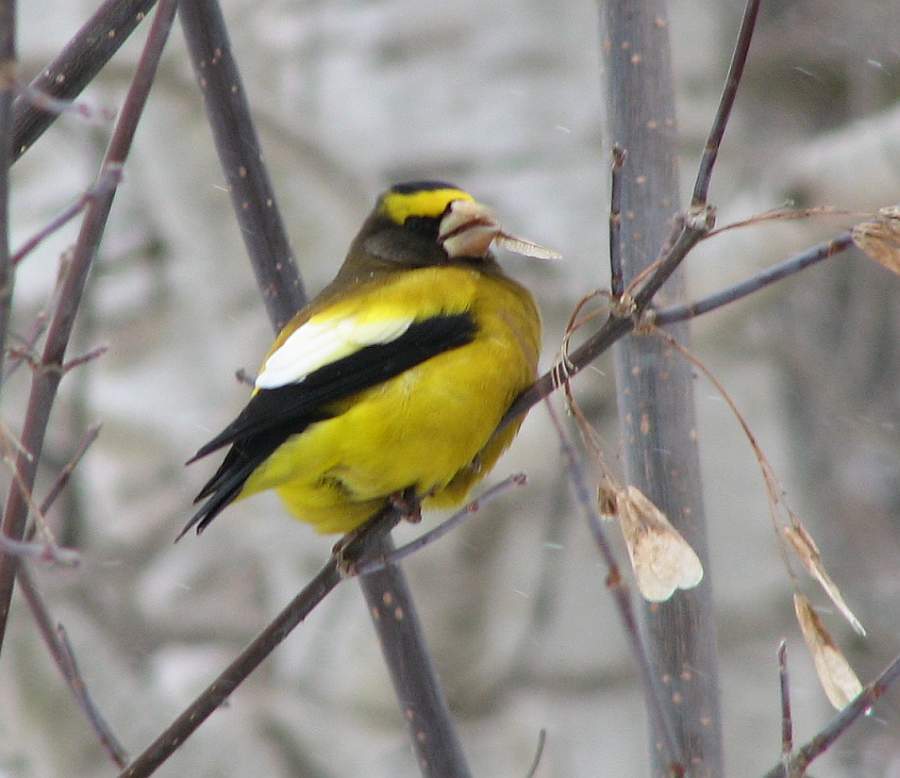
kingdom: Animalia
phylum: Chordata
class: Aves
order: Passeriformes
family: Fringillidae
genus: Hesperiphona
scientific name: Hesperiphona vespertina
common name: Evening grosbeak
